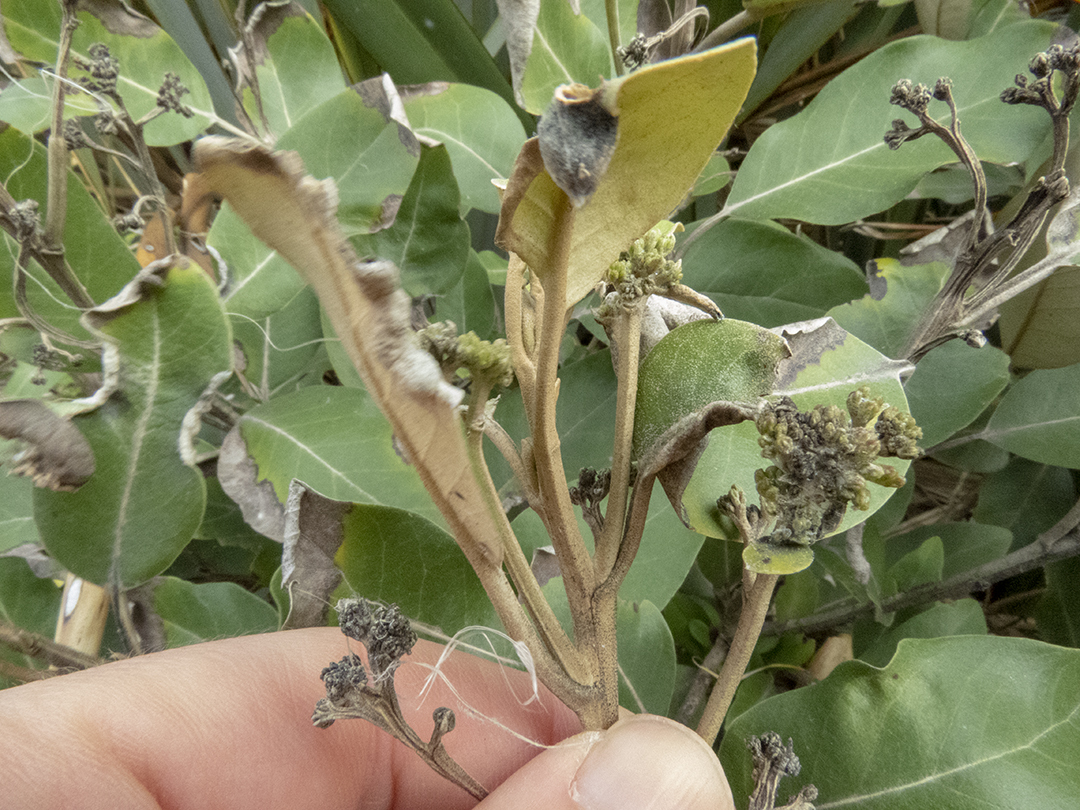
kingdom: Plantae
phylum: Tracheophyta
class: Magnoliopsida
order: Asterales
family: Asteraceae
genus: Olearia
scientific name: Olearia avicenniifolia
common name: Mangrove-leaf daisybush
